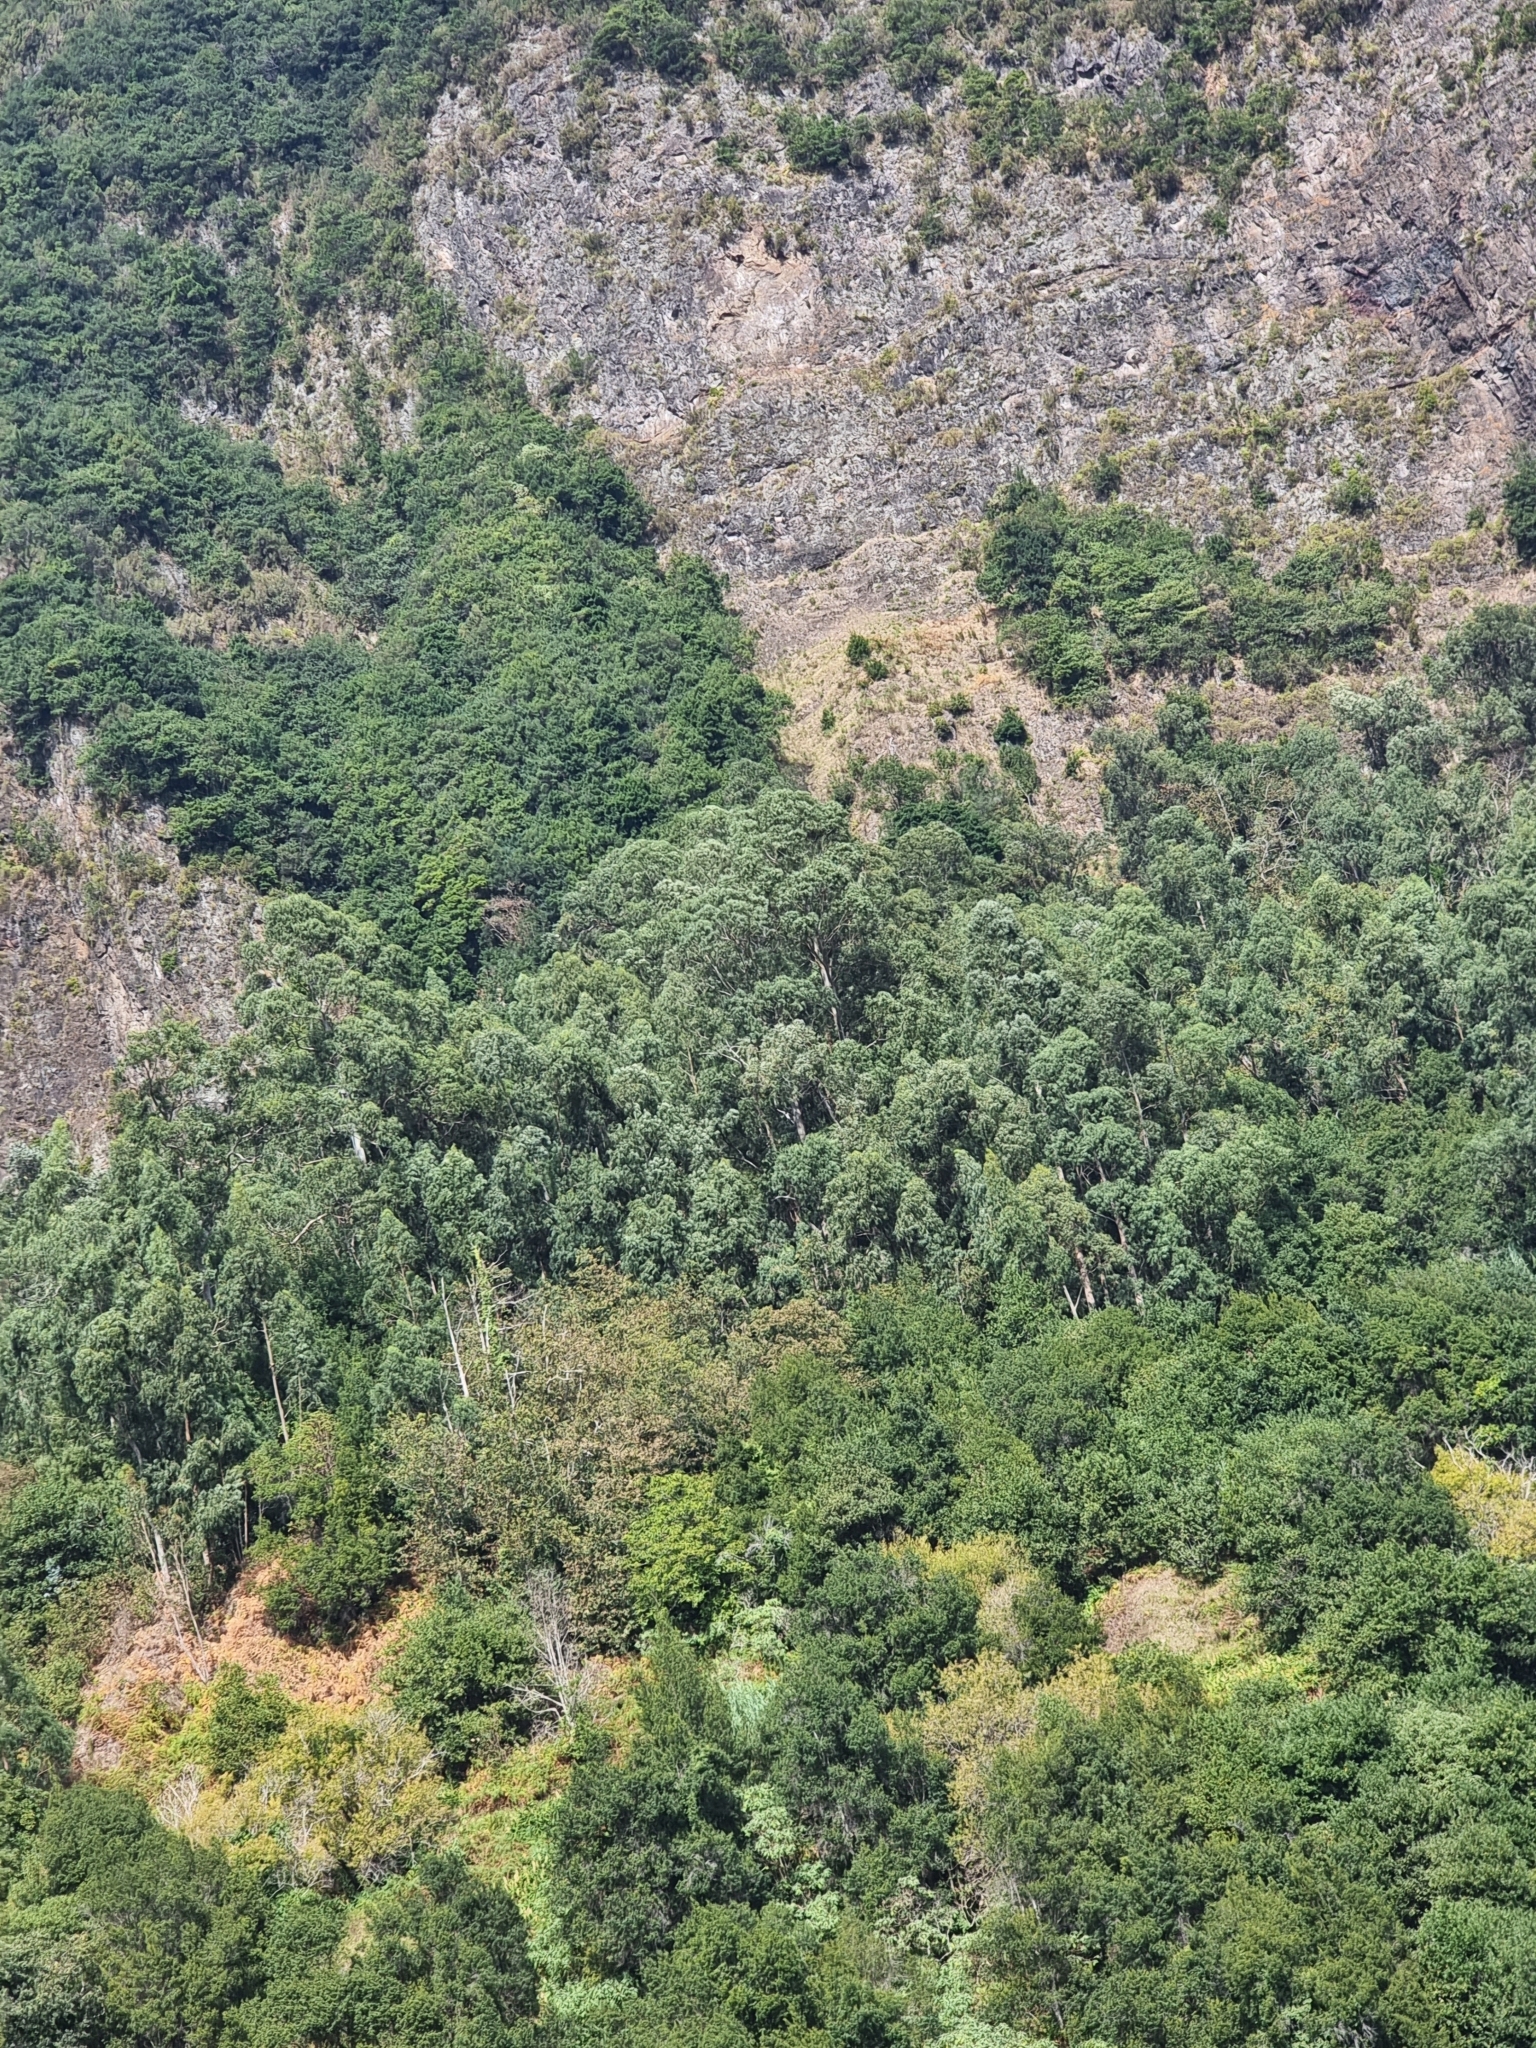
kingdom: Plantae
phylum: Tracheophyta
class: Magnoliopsida
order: Myrtales
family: Myrtaceae
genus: Eucalyptus
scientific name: Eucalyptus globulus
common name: Southern blue-gum
